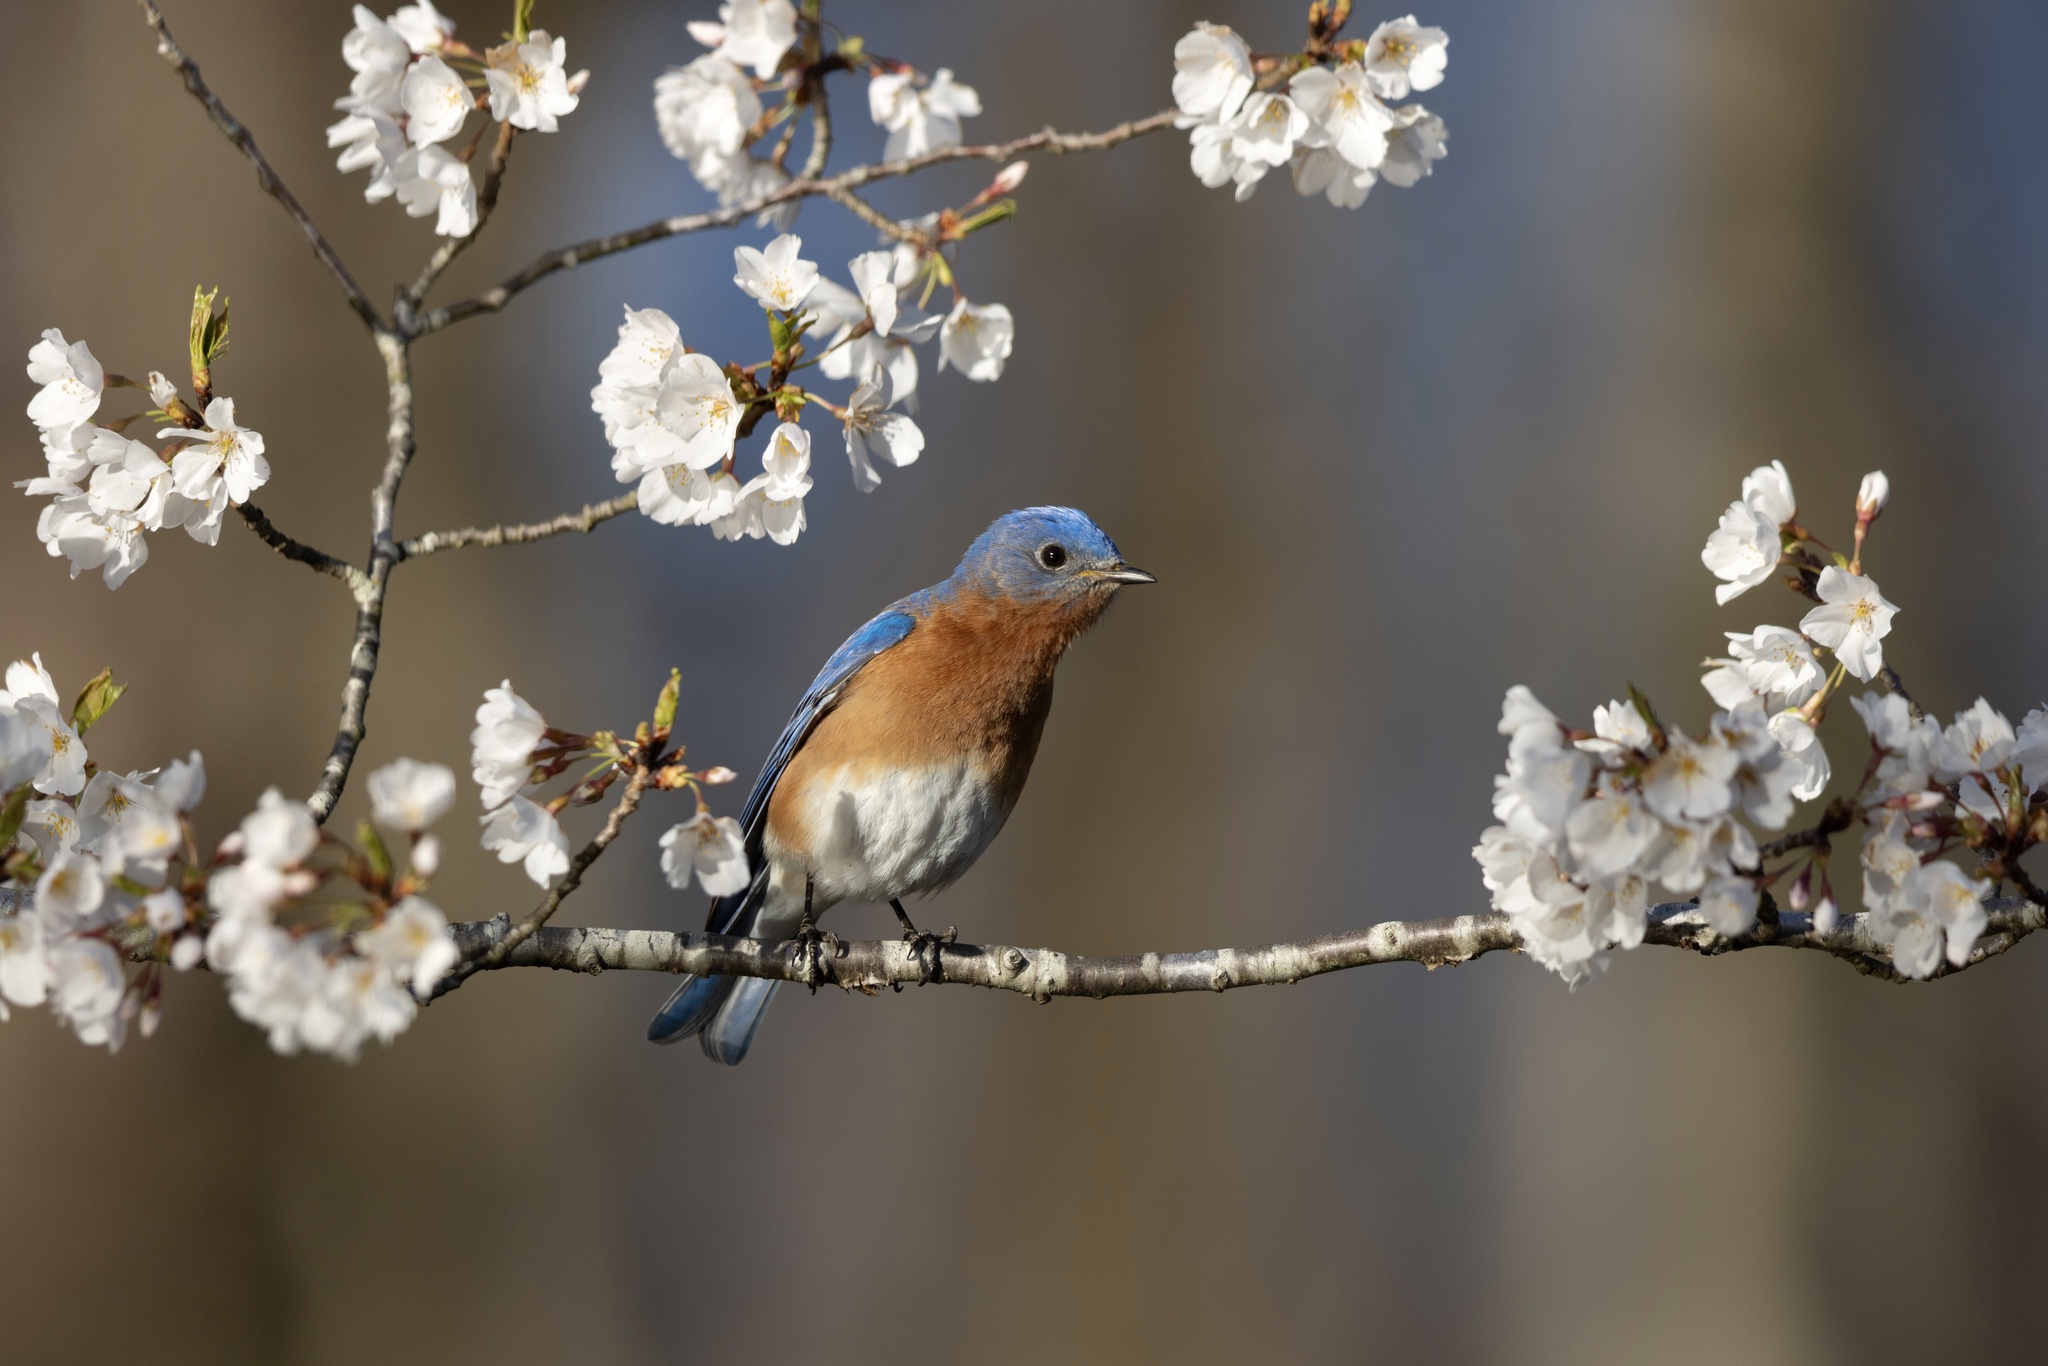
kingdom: Animalia
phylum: Chordata
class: Aves
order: Passeriformes
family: Turdidae
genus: Sialia
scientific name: Sialia sialis
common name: Eastern bluebird
